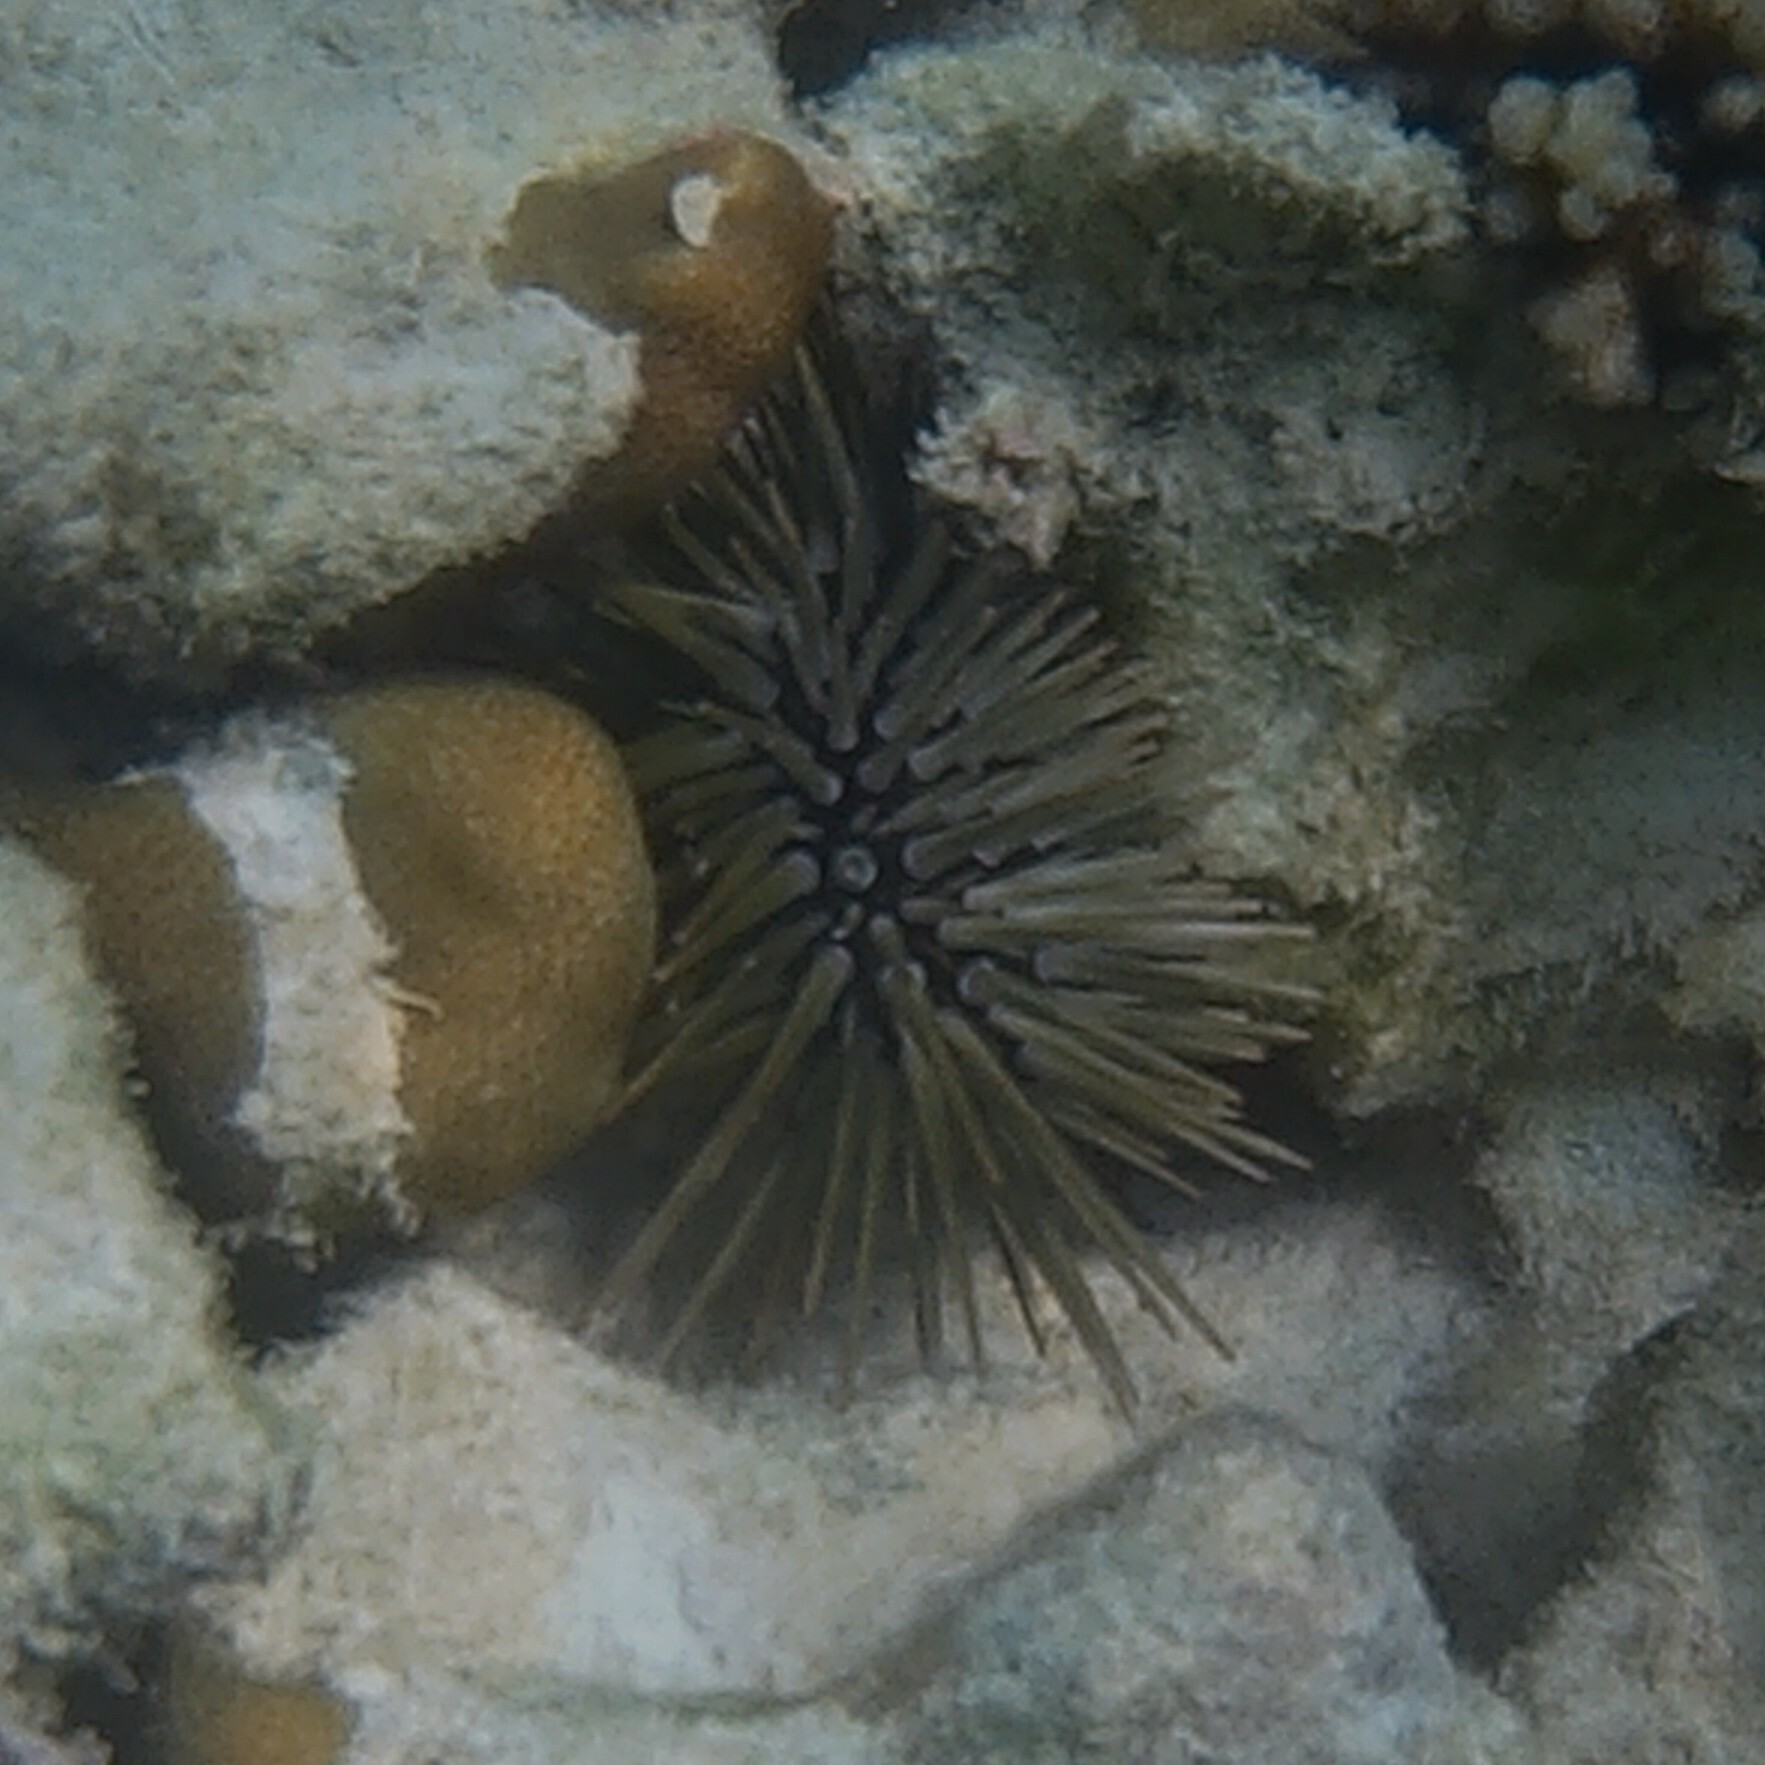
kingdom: Animalia
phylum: Echinodermata
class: Echinoidea
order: Camarodonta
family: Echinometridae
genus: Echinometra
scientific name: Echinometra mathaei
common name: Rock-boring urchin
